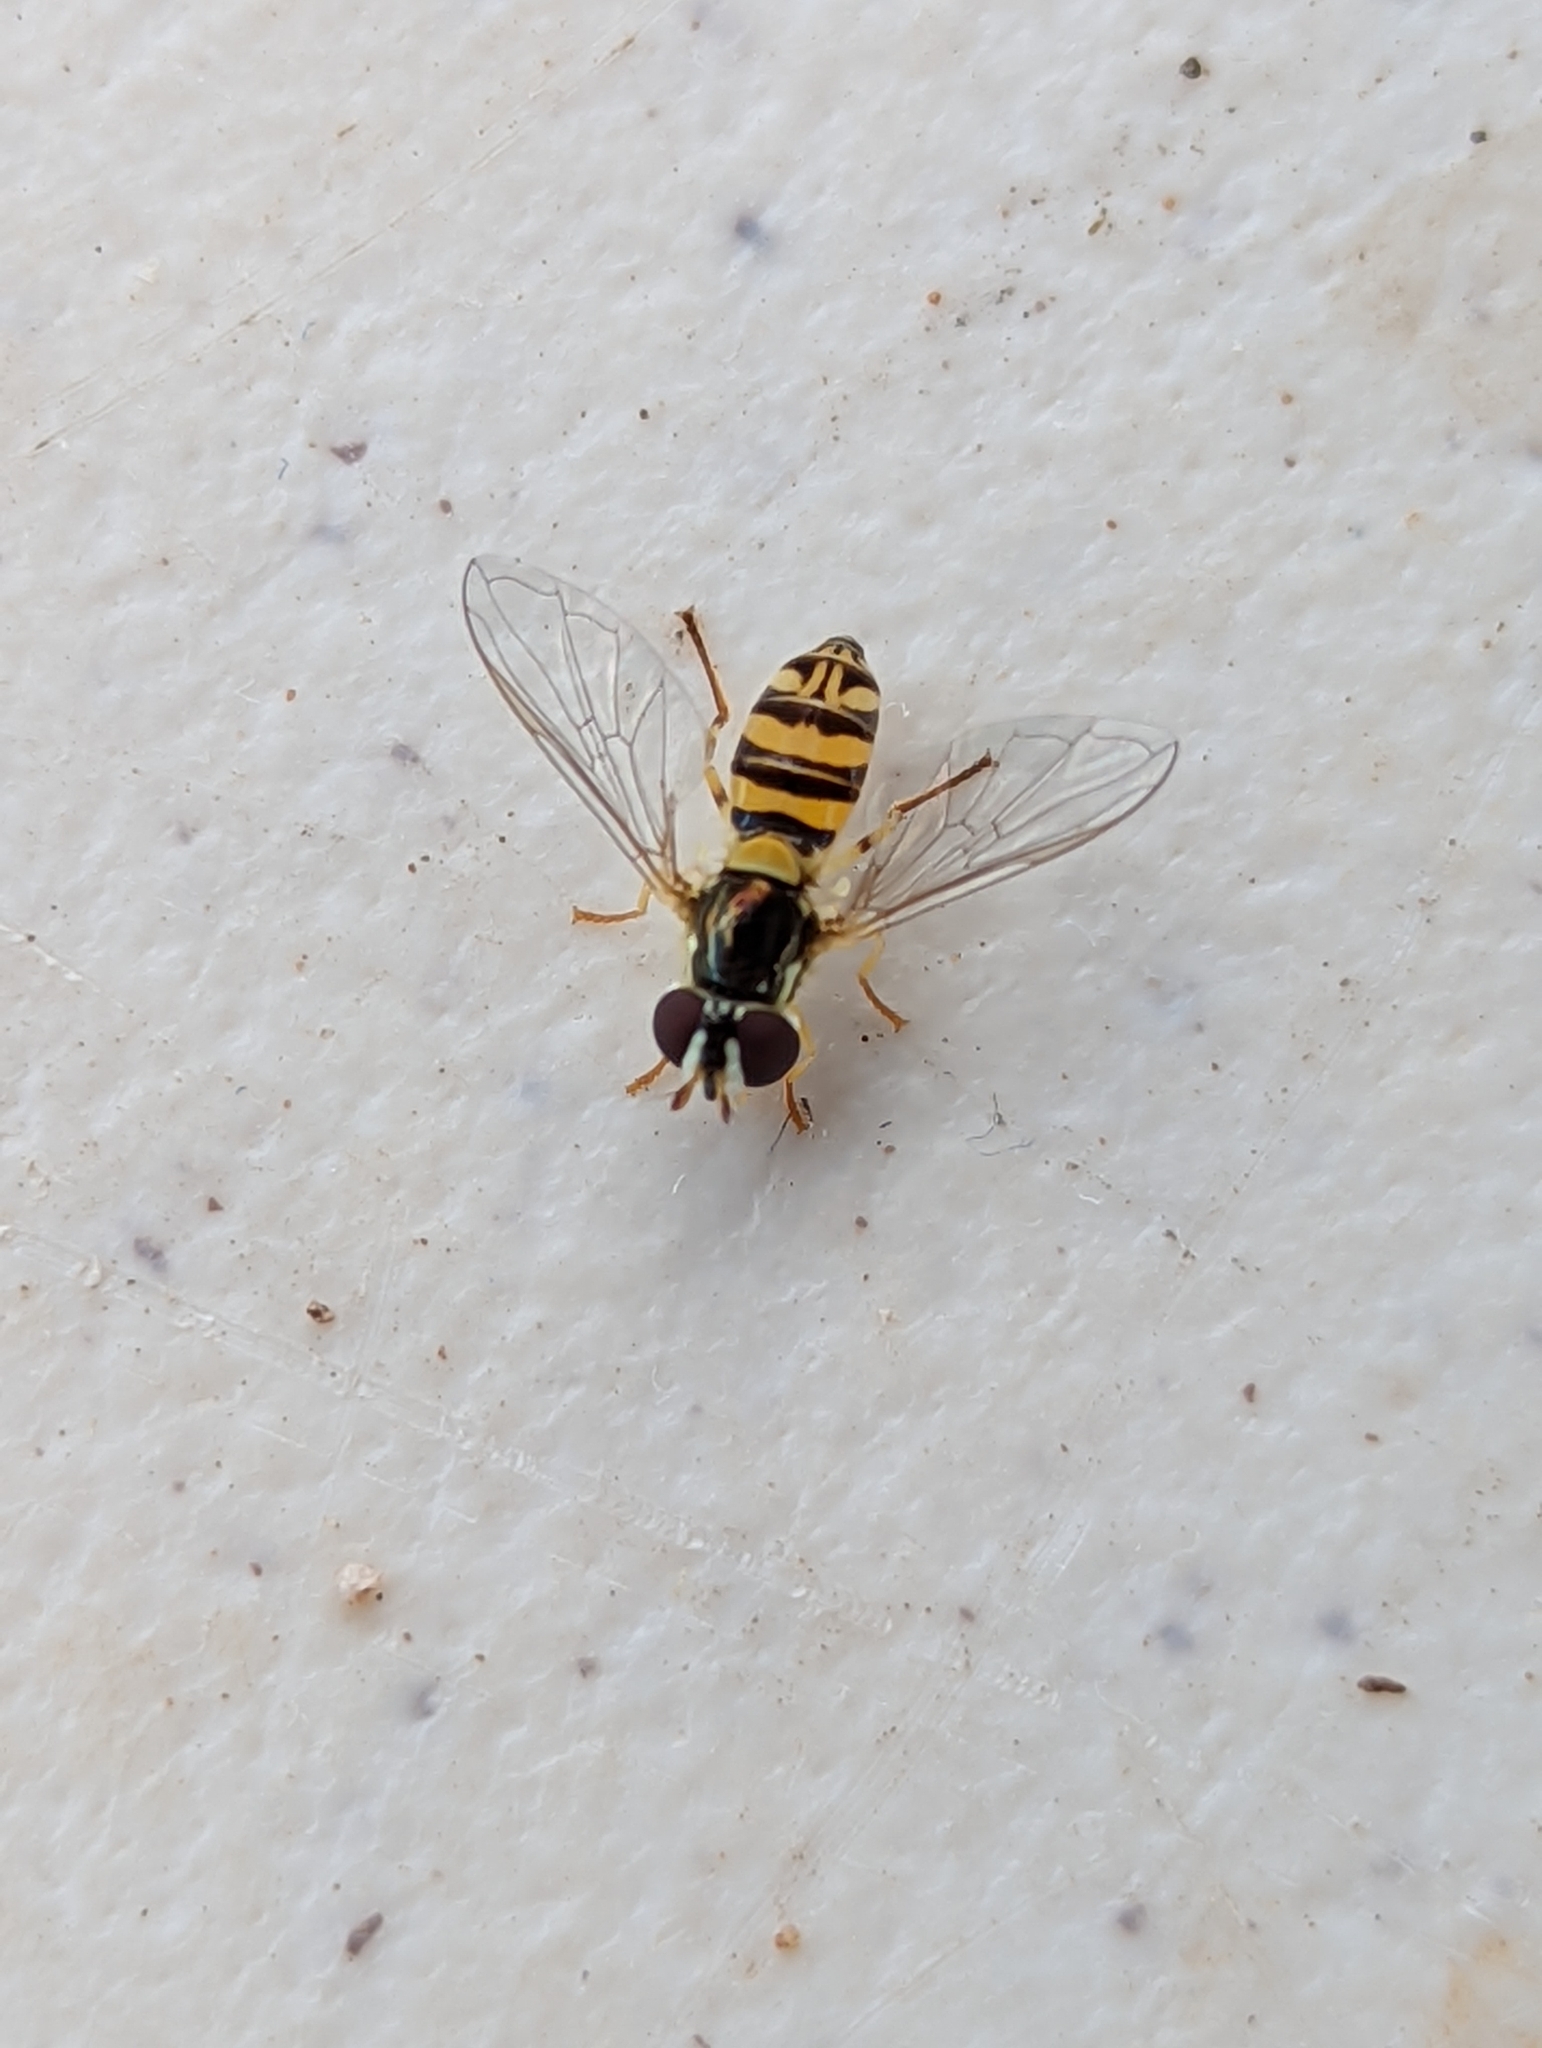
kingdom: Animalia
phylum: Arthropoda
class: Insecta
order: Diptera
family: Syrphidae
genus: Allograpta
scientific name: Allograpta exotica
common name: Syrphid fly
